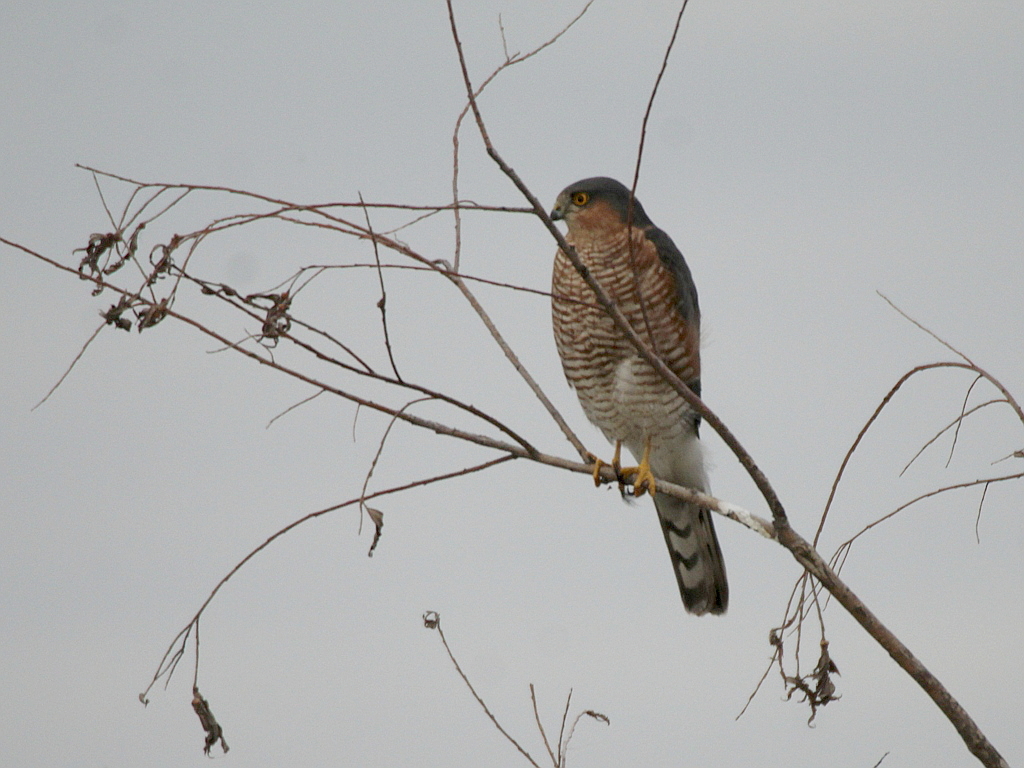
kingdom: Animalia
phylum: Chordata
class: Aves
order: Accipitriformes
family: Accipitridae
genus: Accipiter
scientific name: Accipiter nisus
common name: Eurasian sparrowhawk
